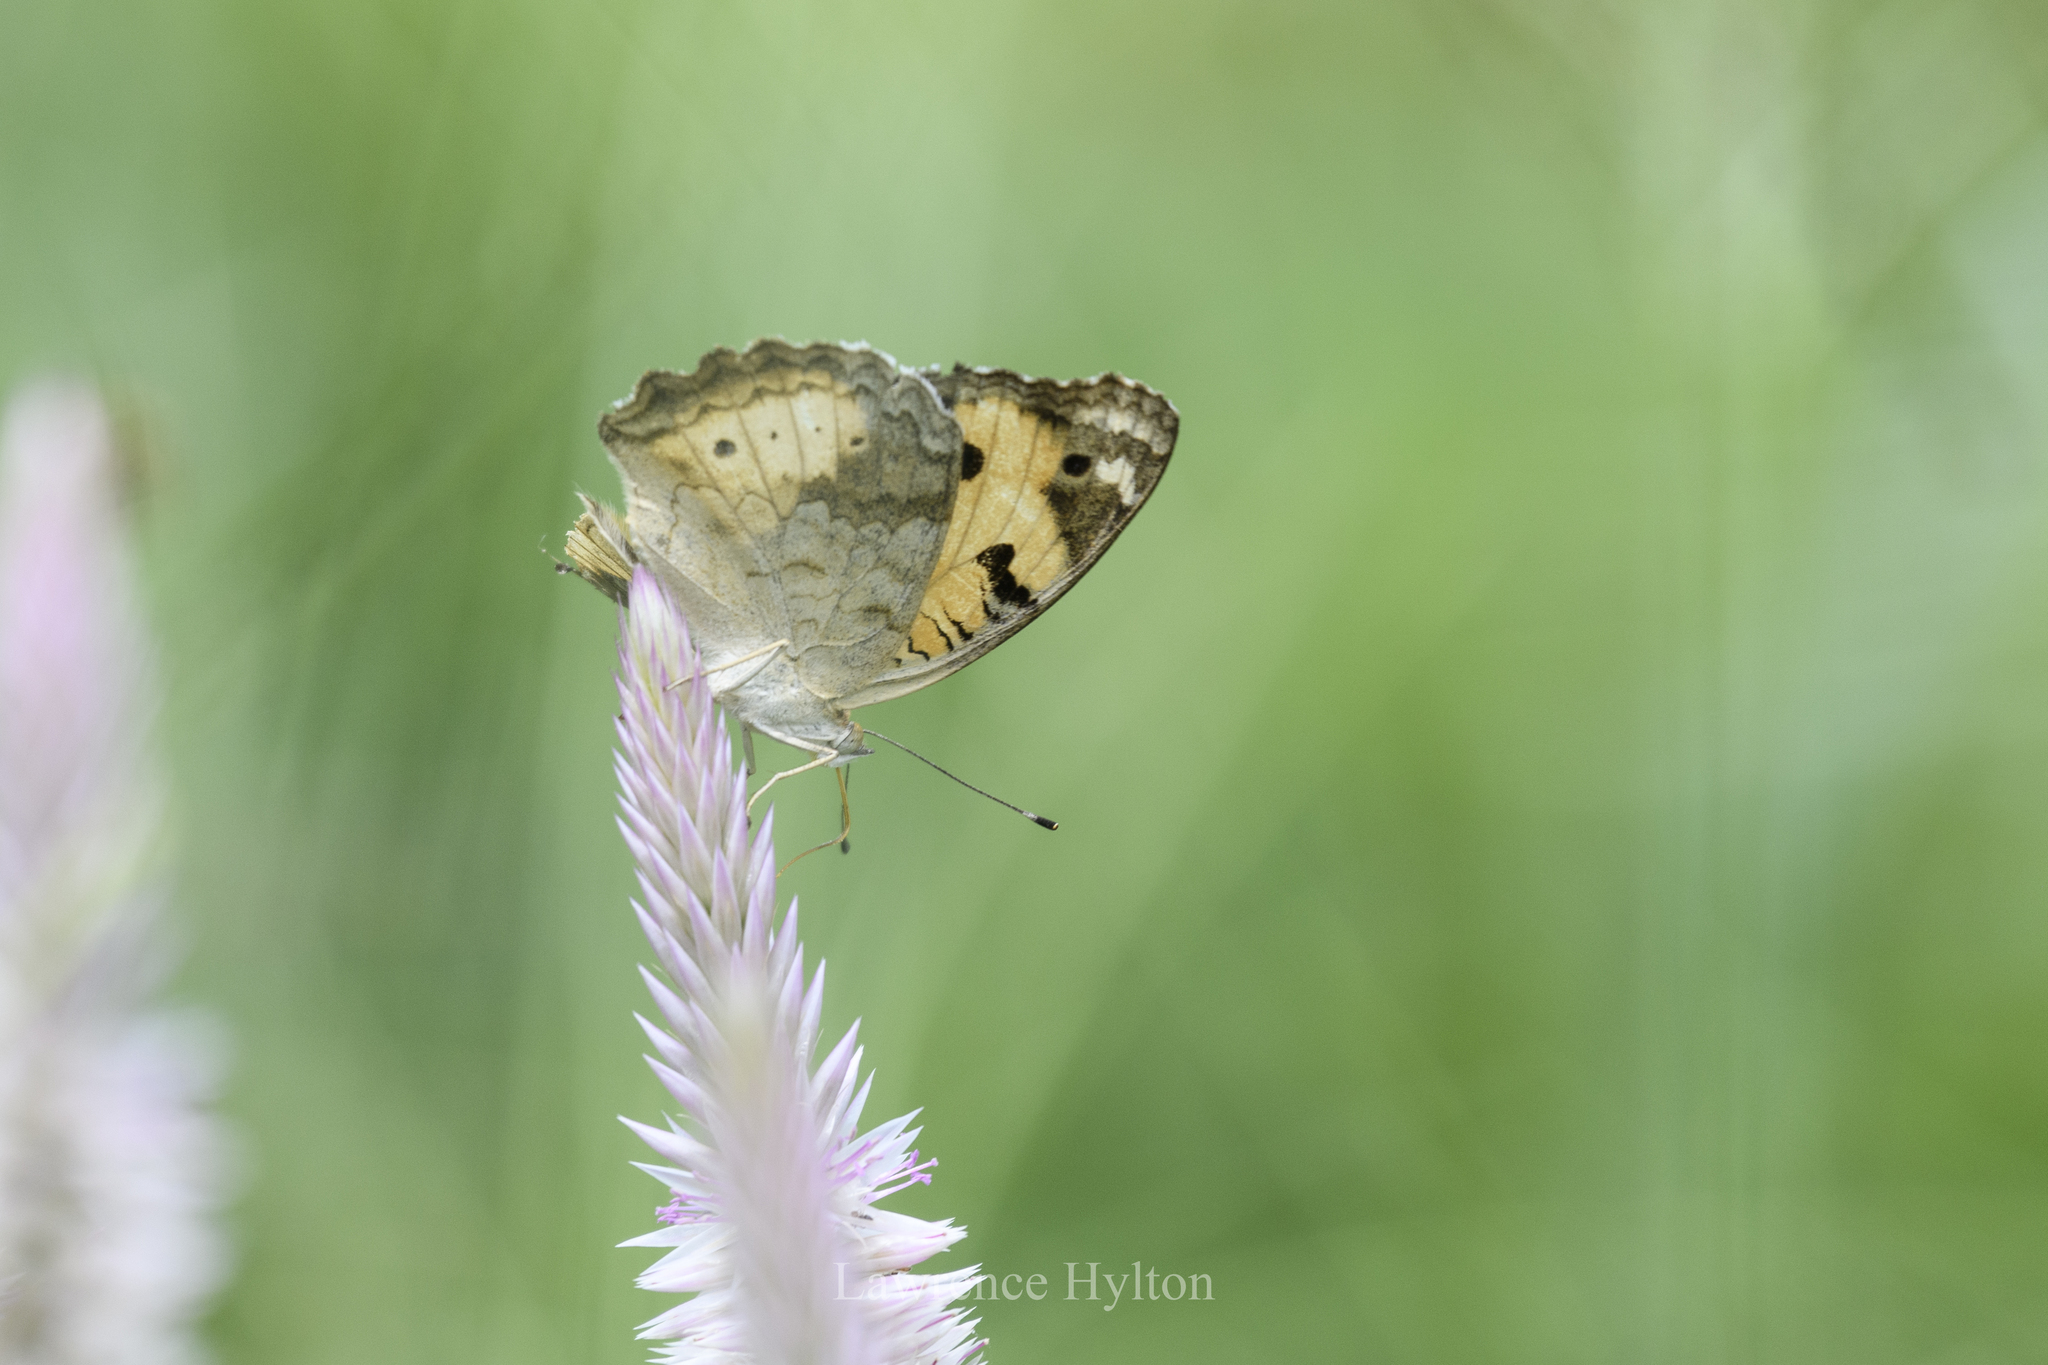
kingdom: Animalia
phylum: Arthropoda
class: Insecta
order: Lepidoptera
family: Nymphalidae
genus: Junonia
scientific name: Junonia hierta
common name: Yellow pansy
